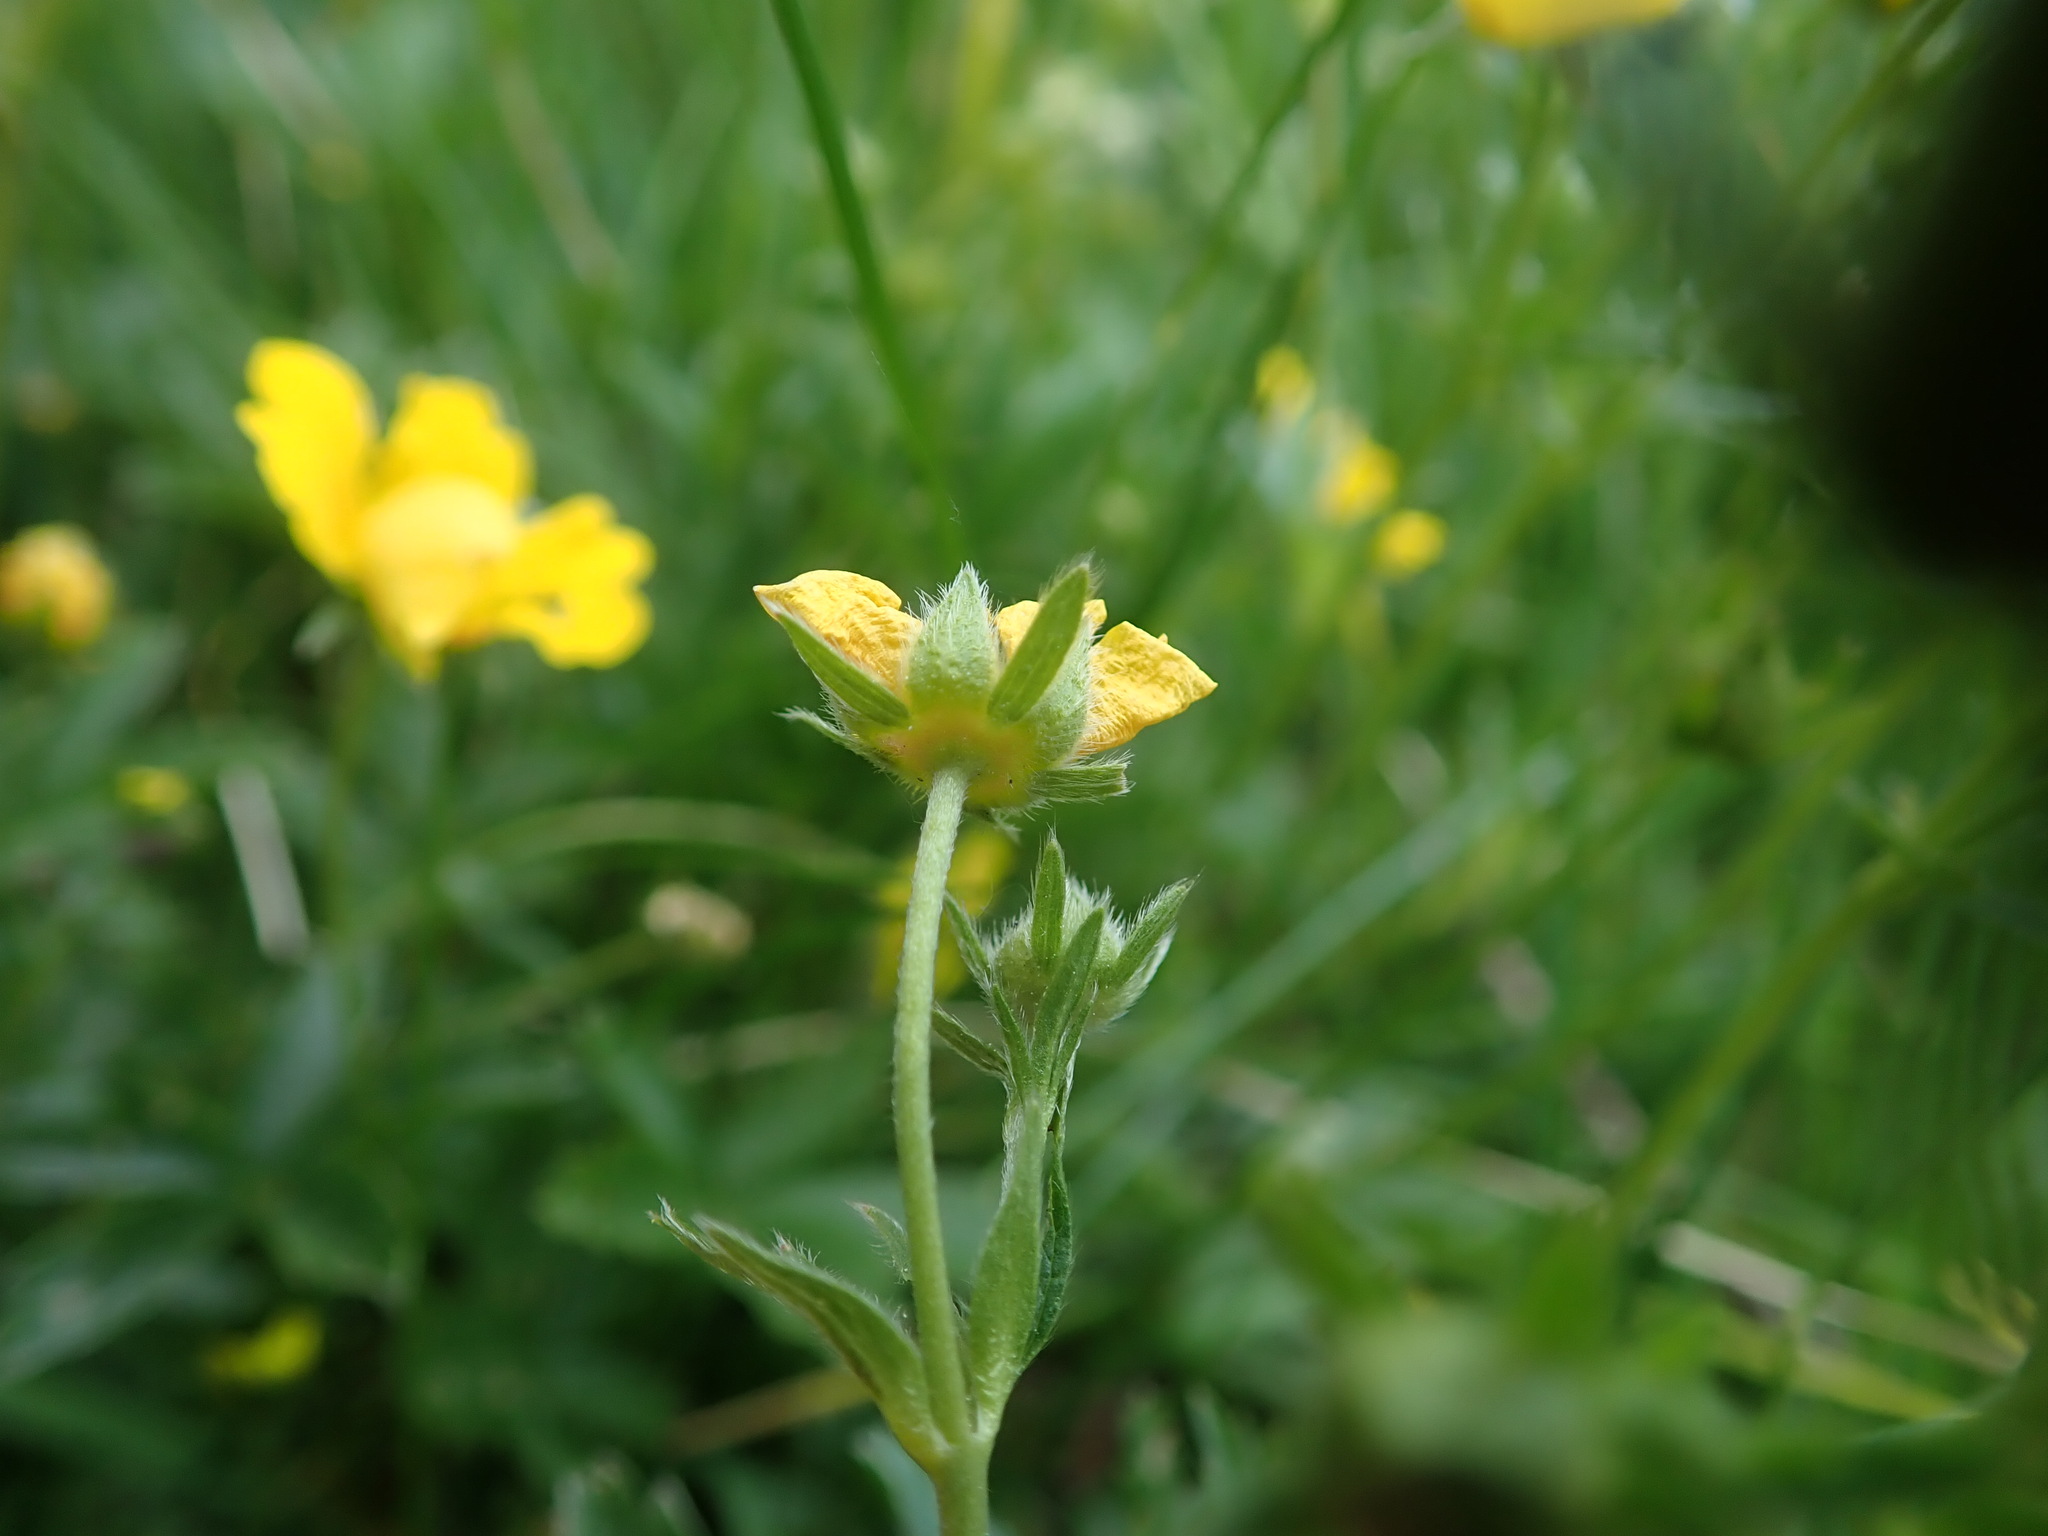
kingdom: Plantae
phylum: Tracheophyta
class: Magnoliopsida
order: Rosales
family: Rosaceae
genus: Potentilla
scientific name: Potentilla aurea
